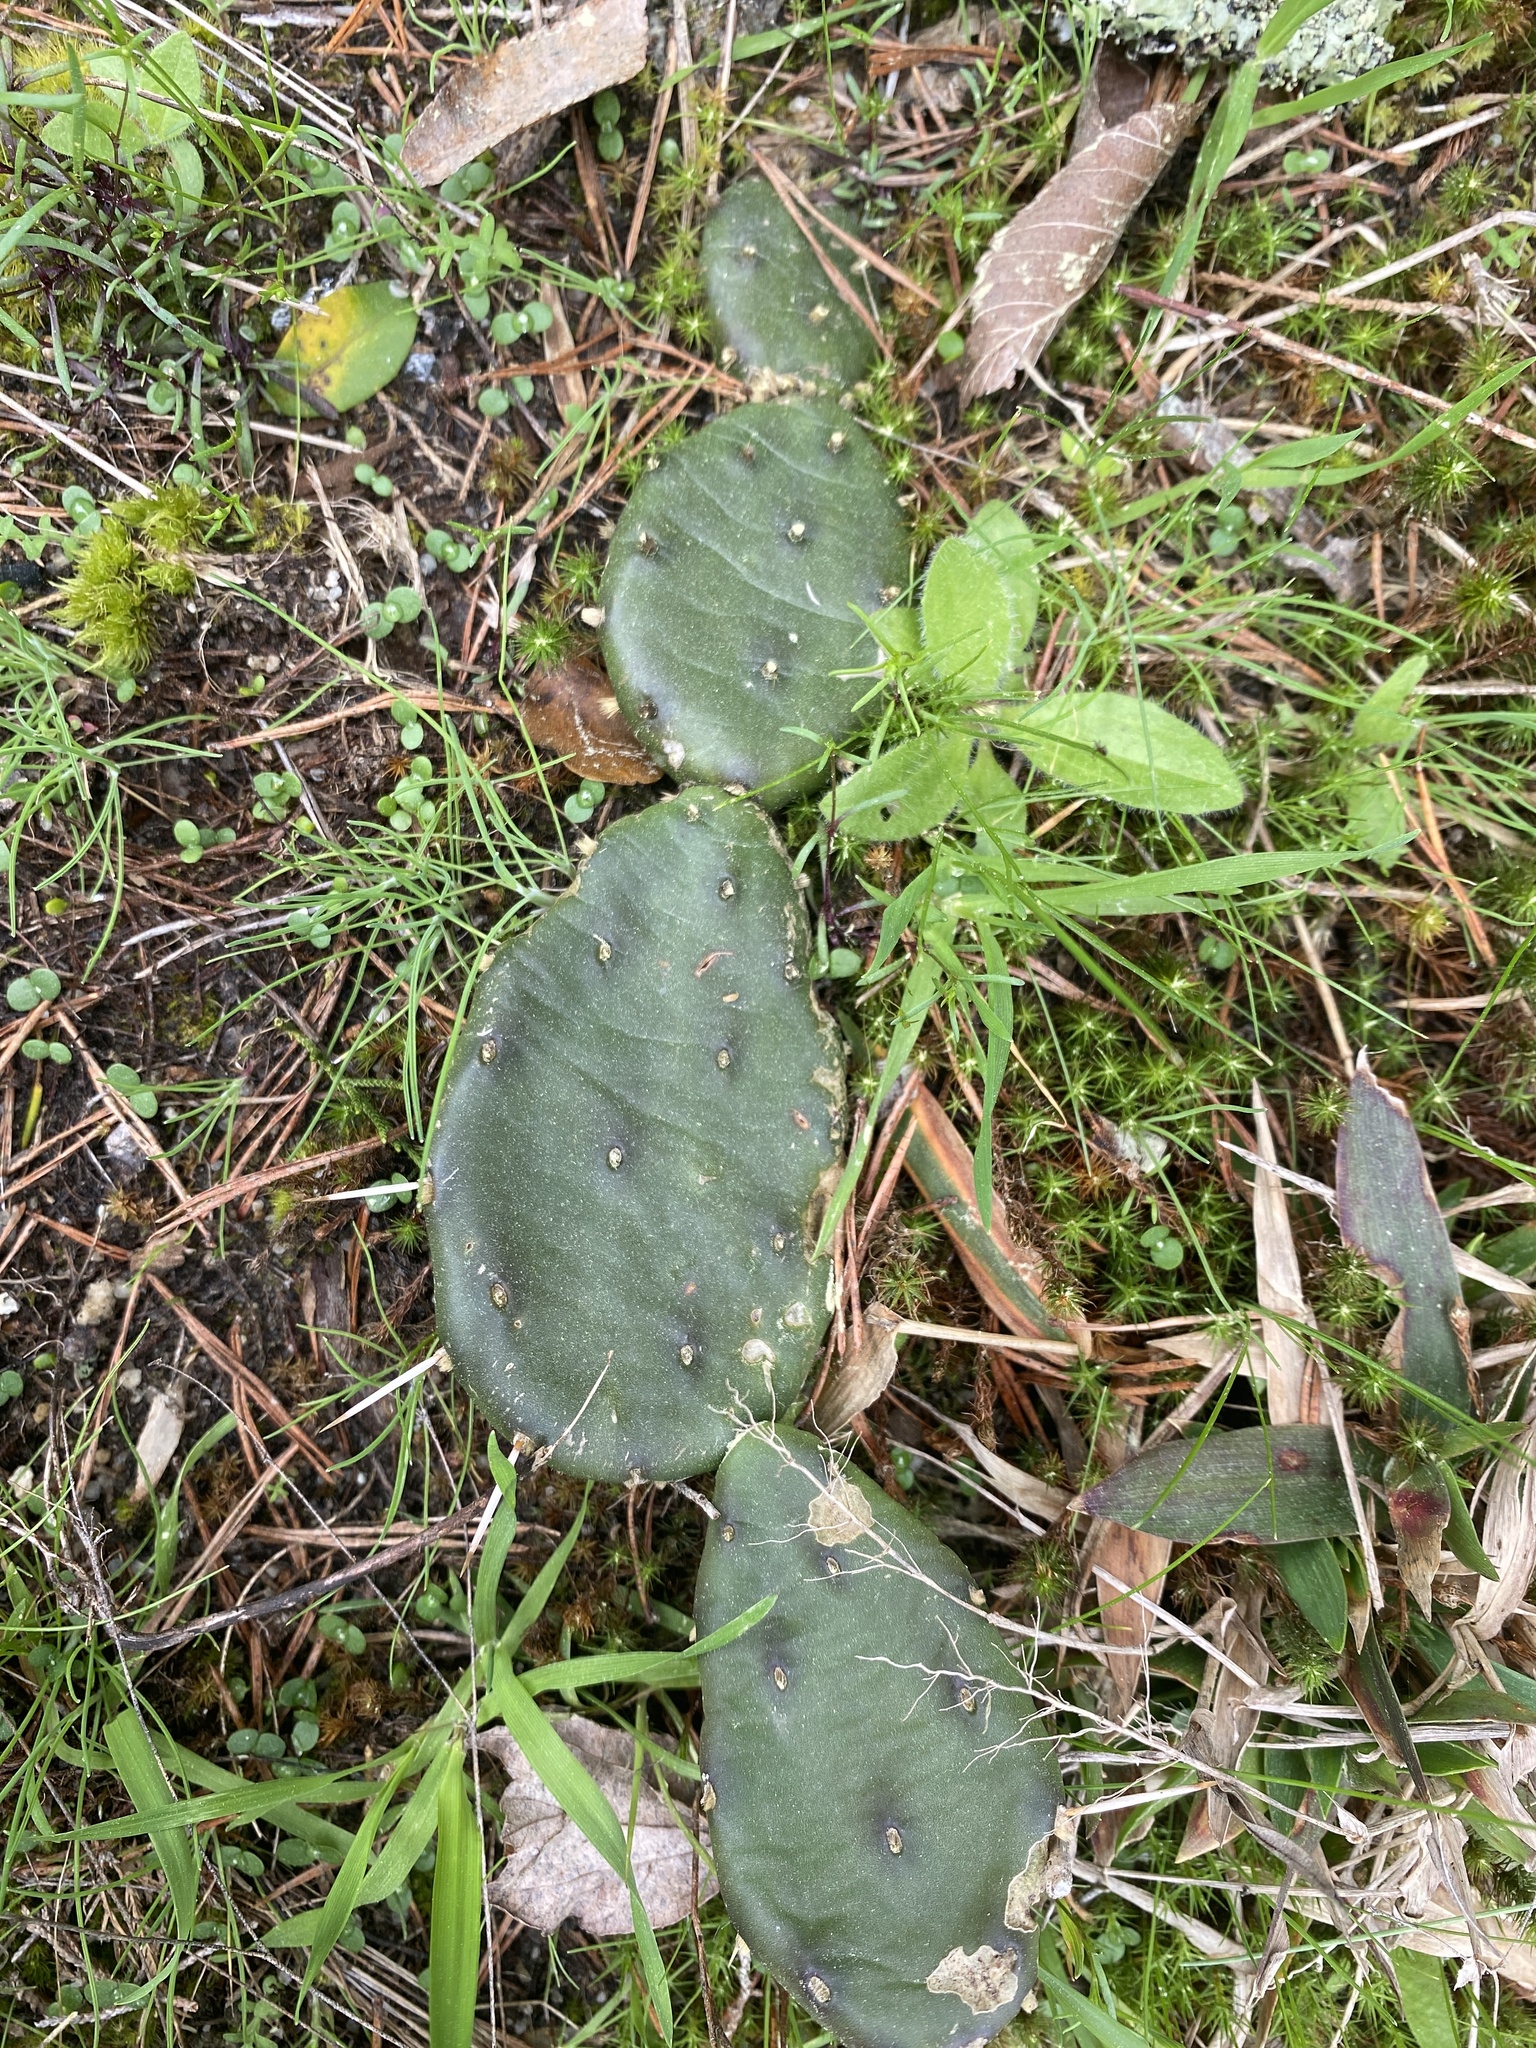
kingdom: Plantae
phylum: Tracheophyta
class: Magnoliopsida
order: Caryophyllales
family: Cactaceae
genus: Opuntia
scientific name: Opuntia mesacantha
